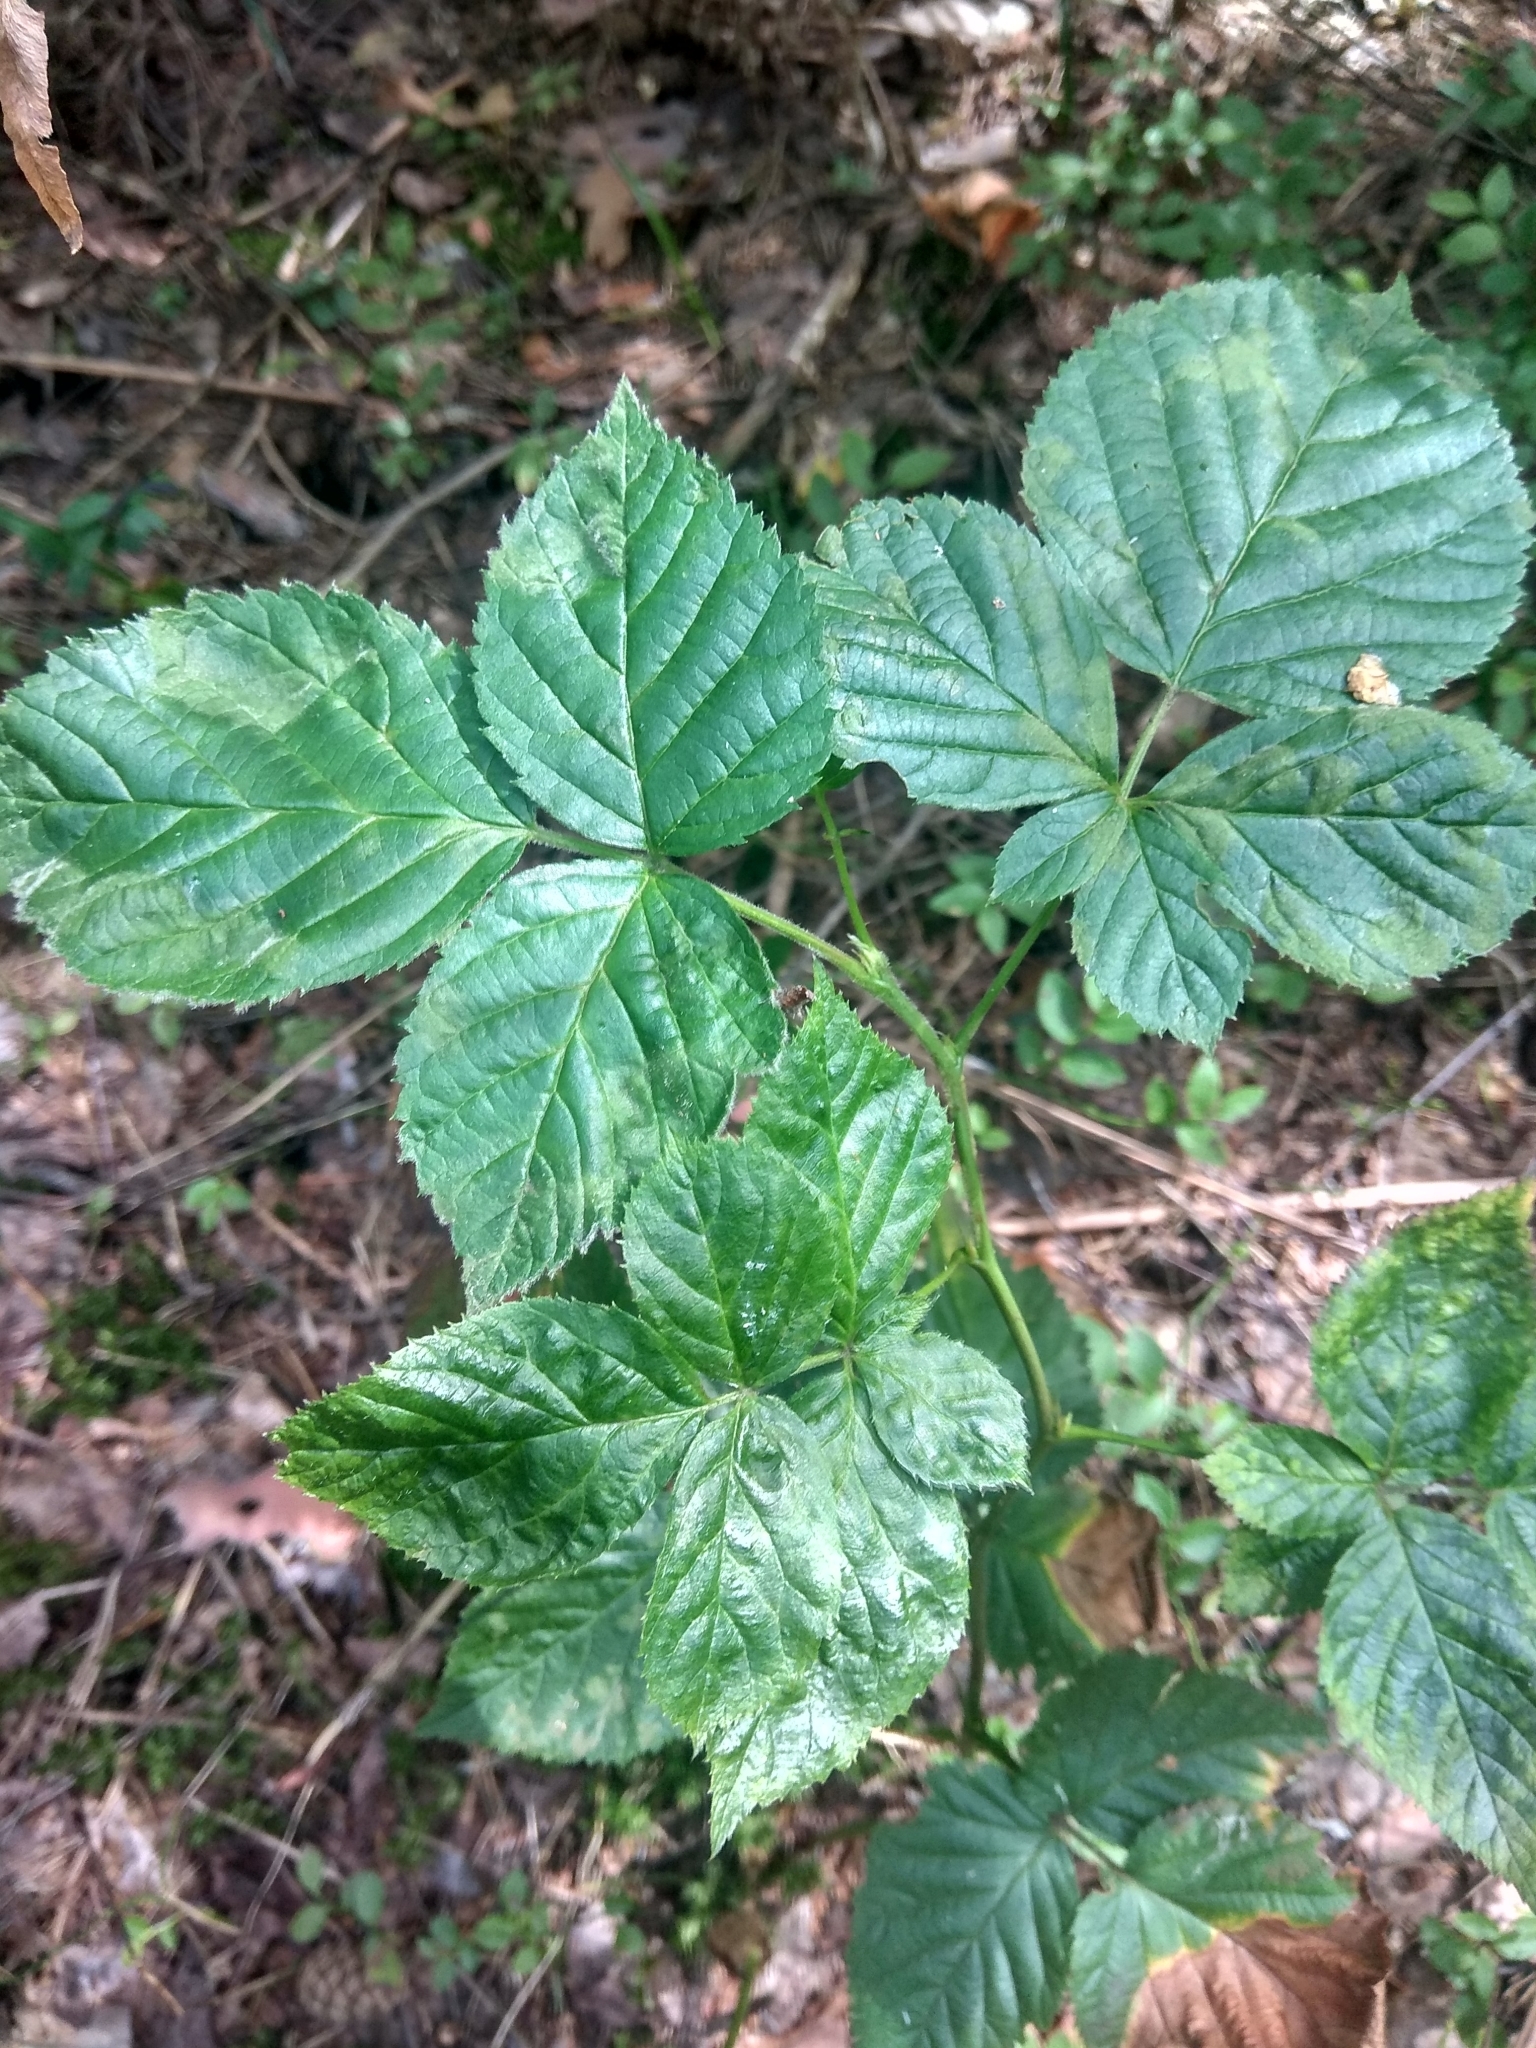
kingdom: Plantae
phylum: Tracheophyta
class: Magnoliopsida
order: Rosales
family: Rosaceae
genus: Rubus
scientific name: Rubus polonicus
